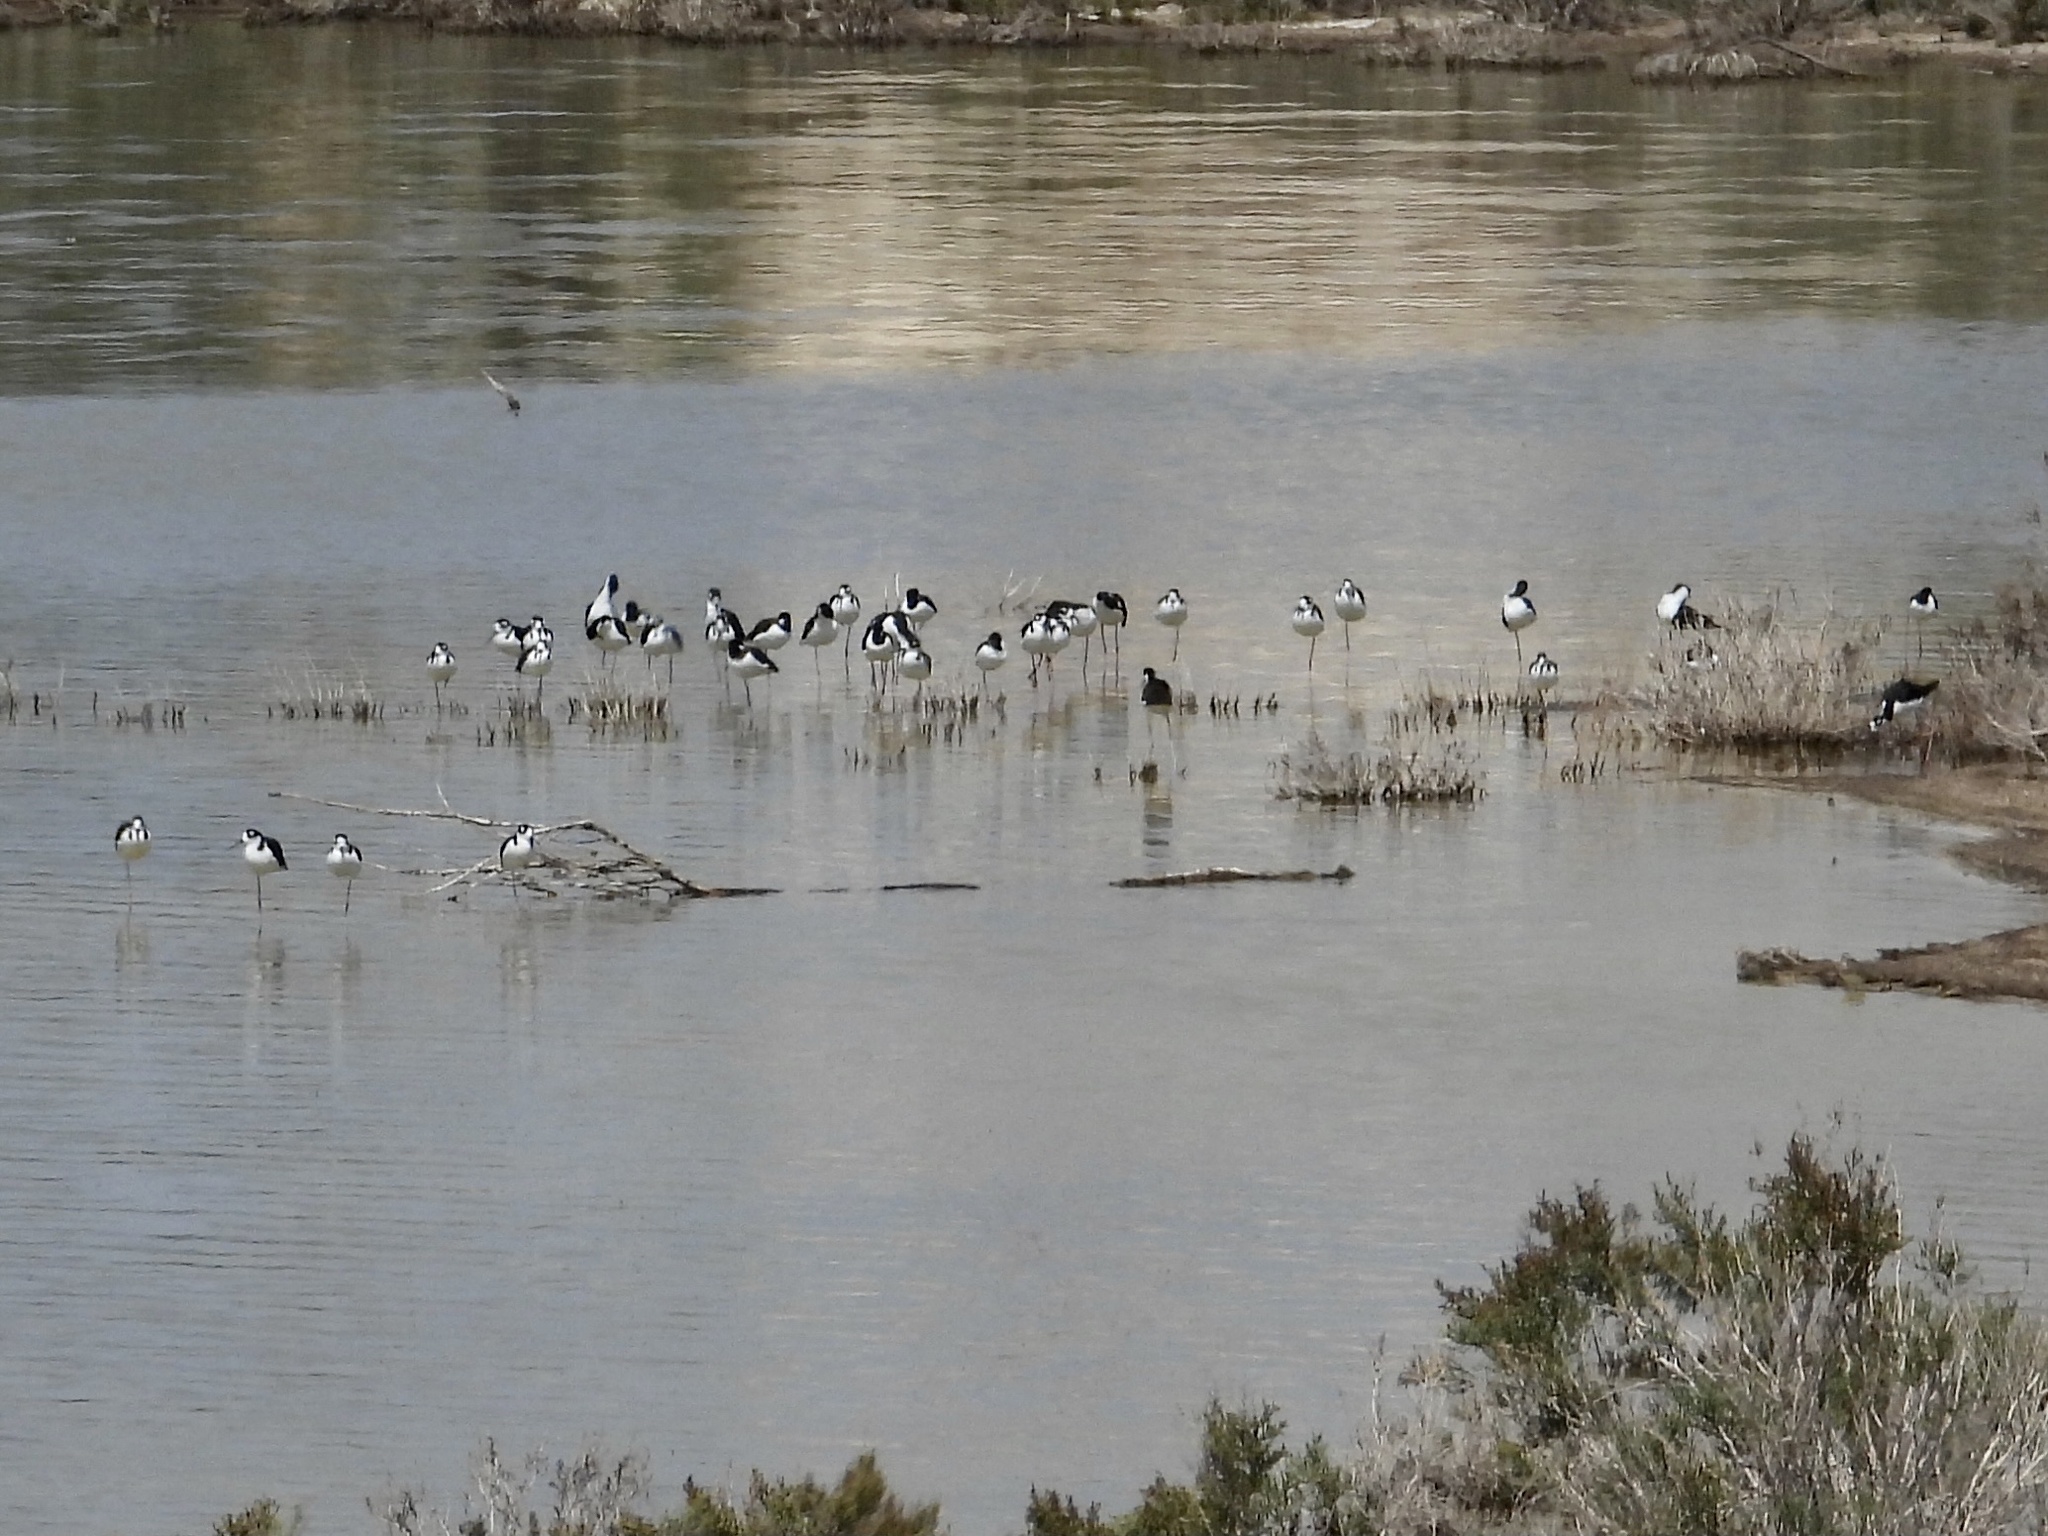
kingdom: Animalia
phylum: Chordata
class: Aves
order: Charadriiformes
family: Recurvirostridae
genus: Himantopus
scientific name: Himantopus mexicanus
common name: Black-necked stilt
